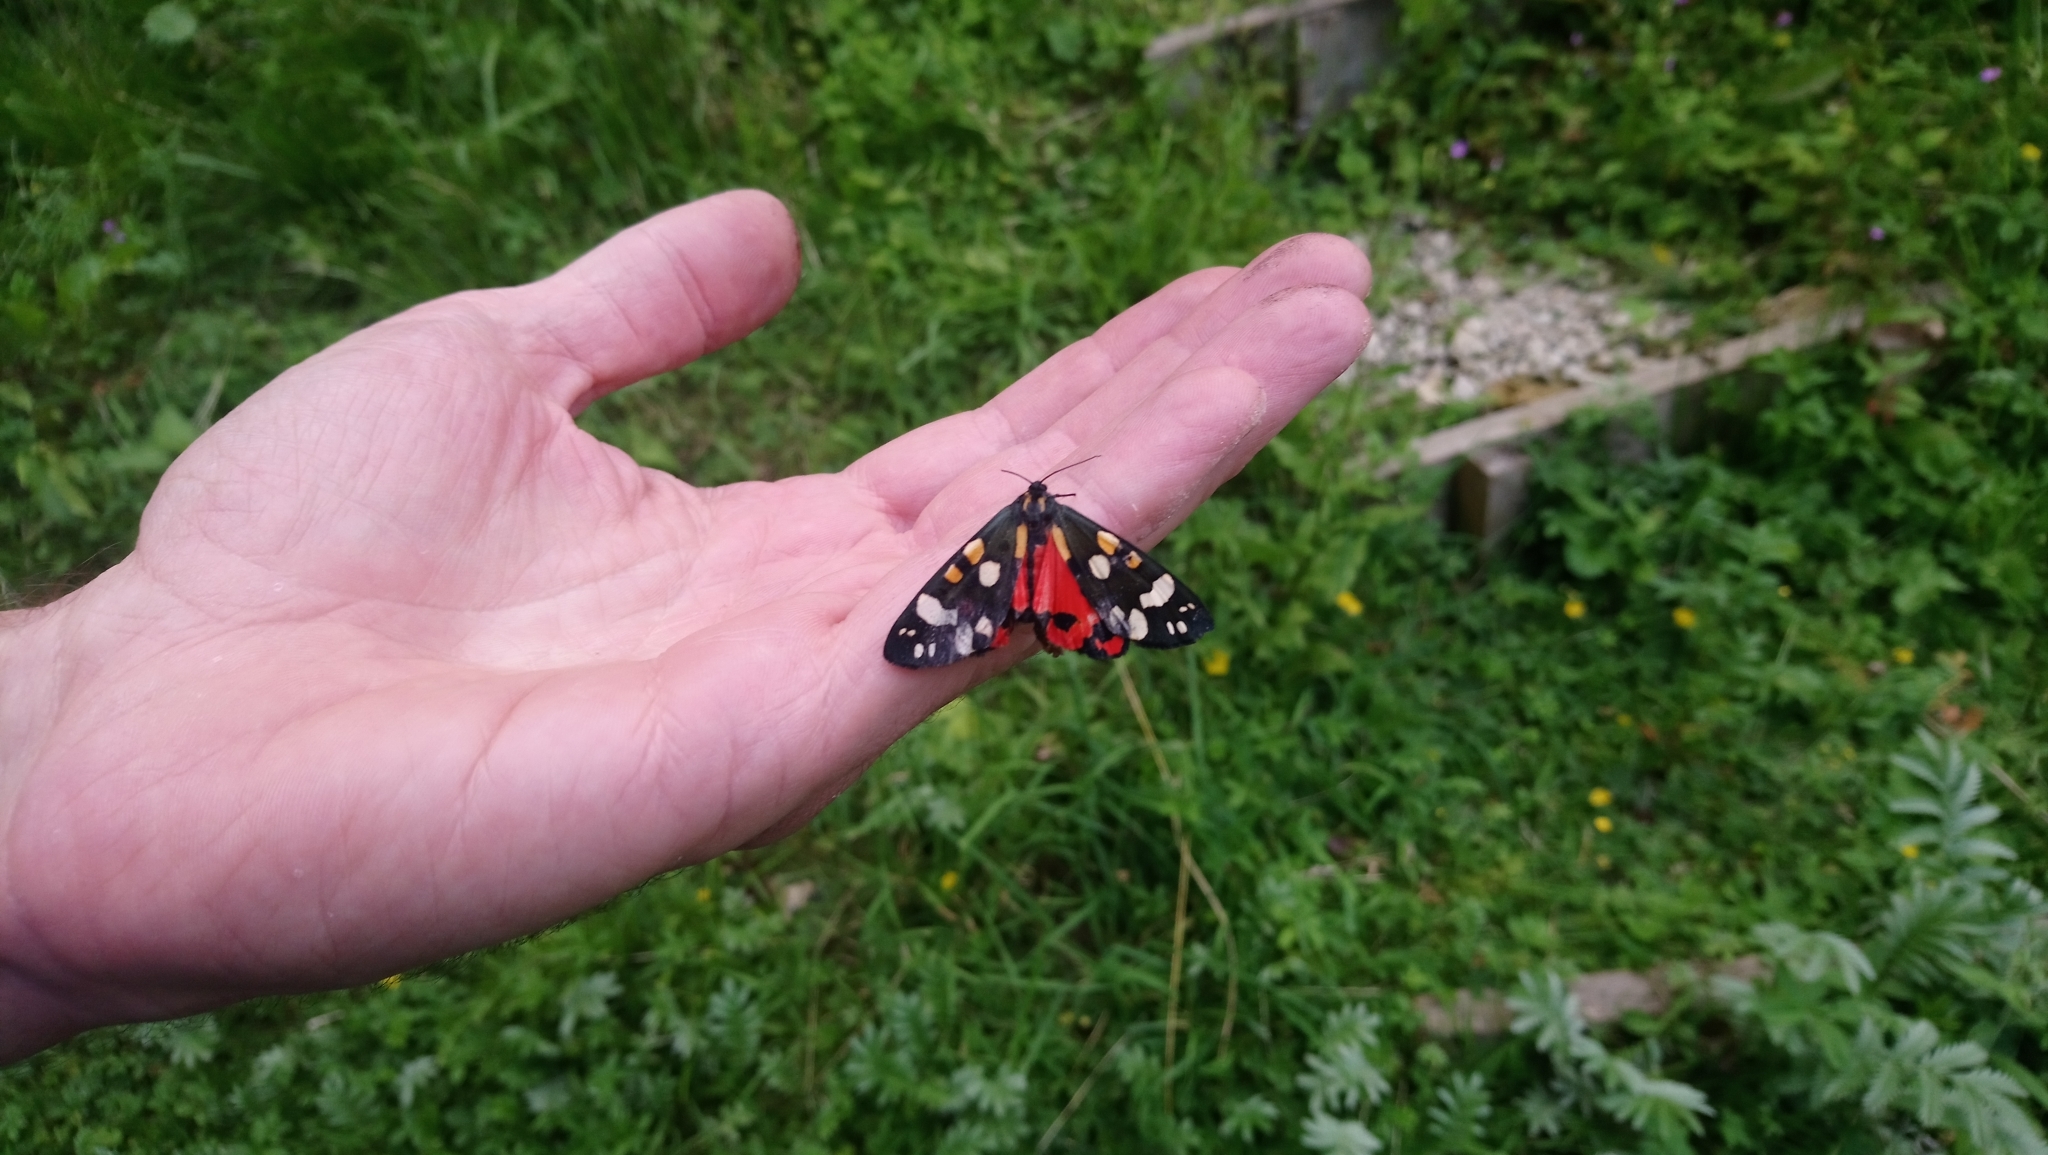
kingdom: Animalia
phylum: Arthropoda
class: Insecta
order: Lepidoptera
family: Erebidae
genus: Callimorpha
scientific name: Callimorpha dominula
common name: Scarlet tiger
